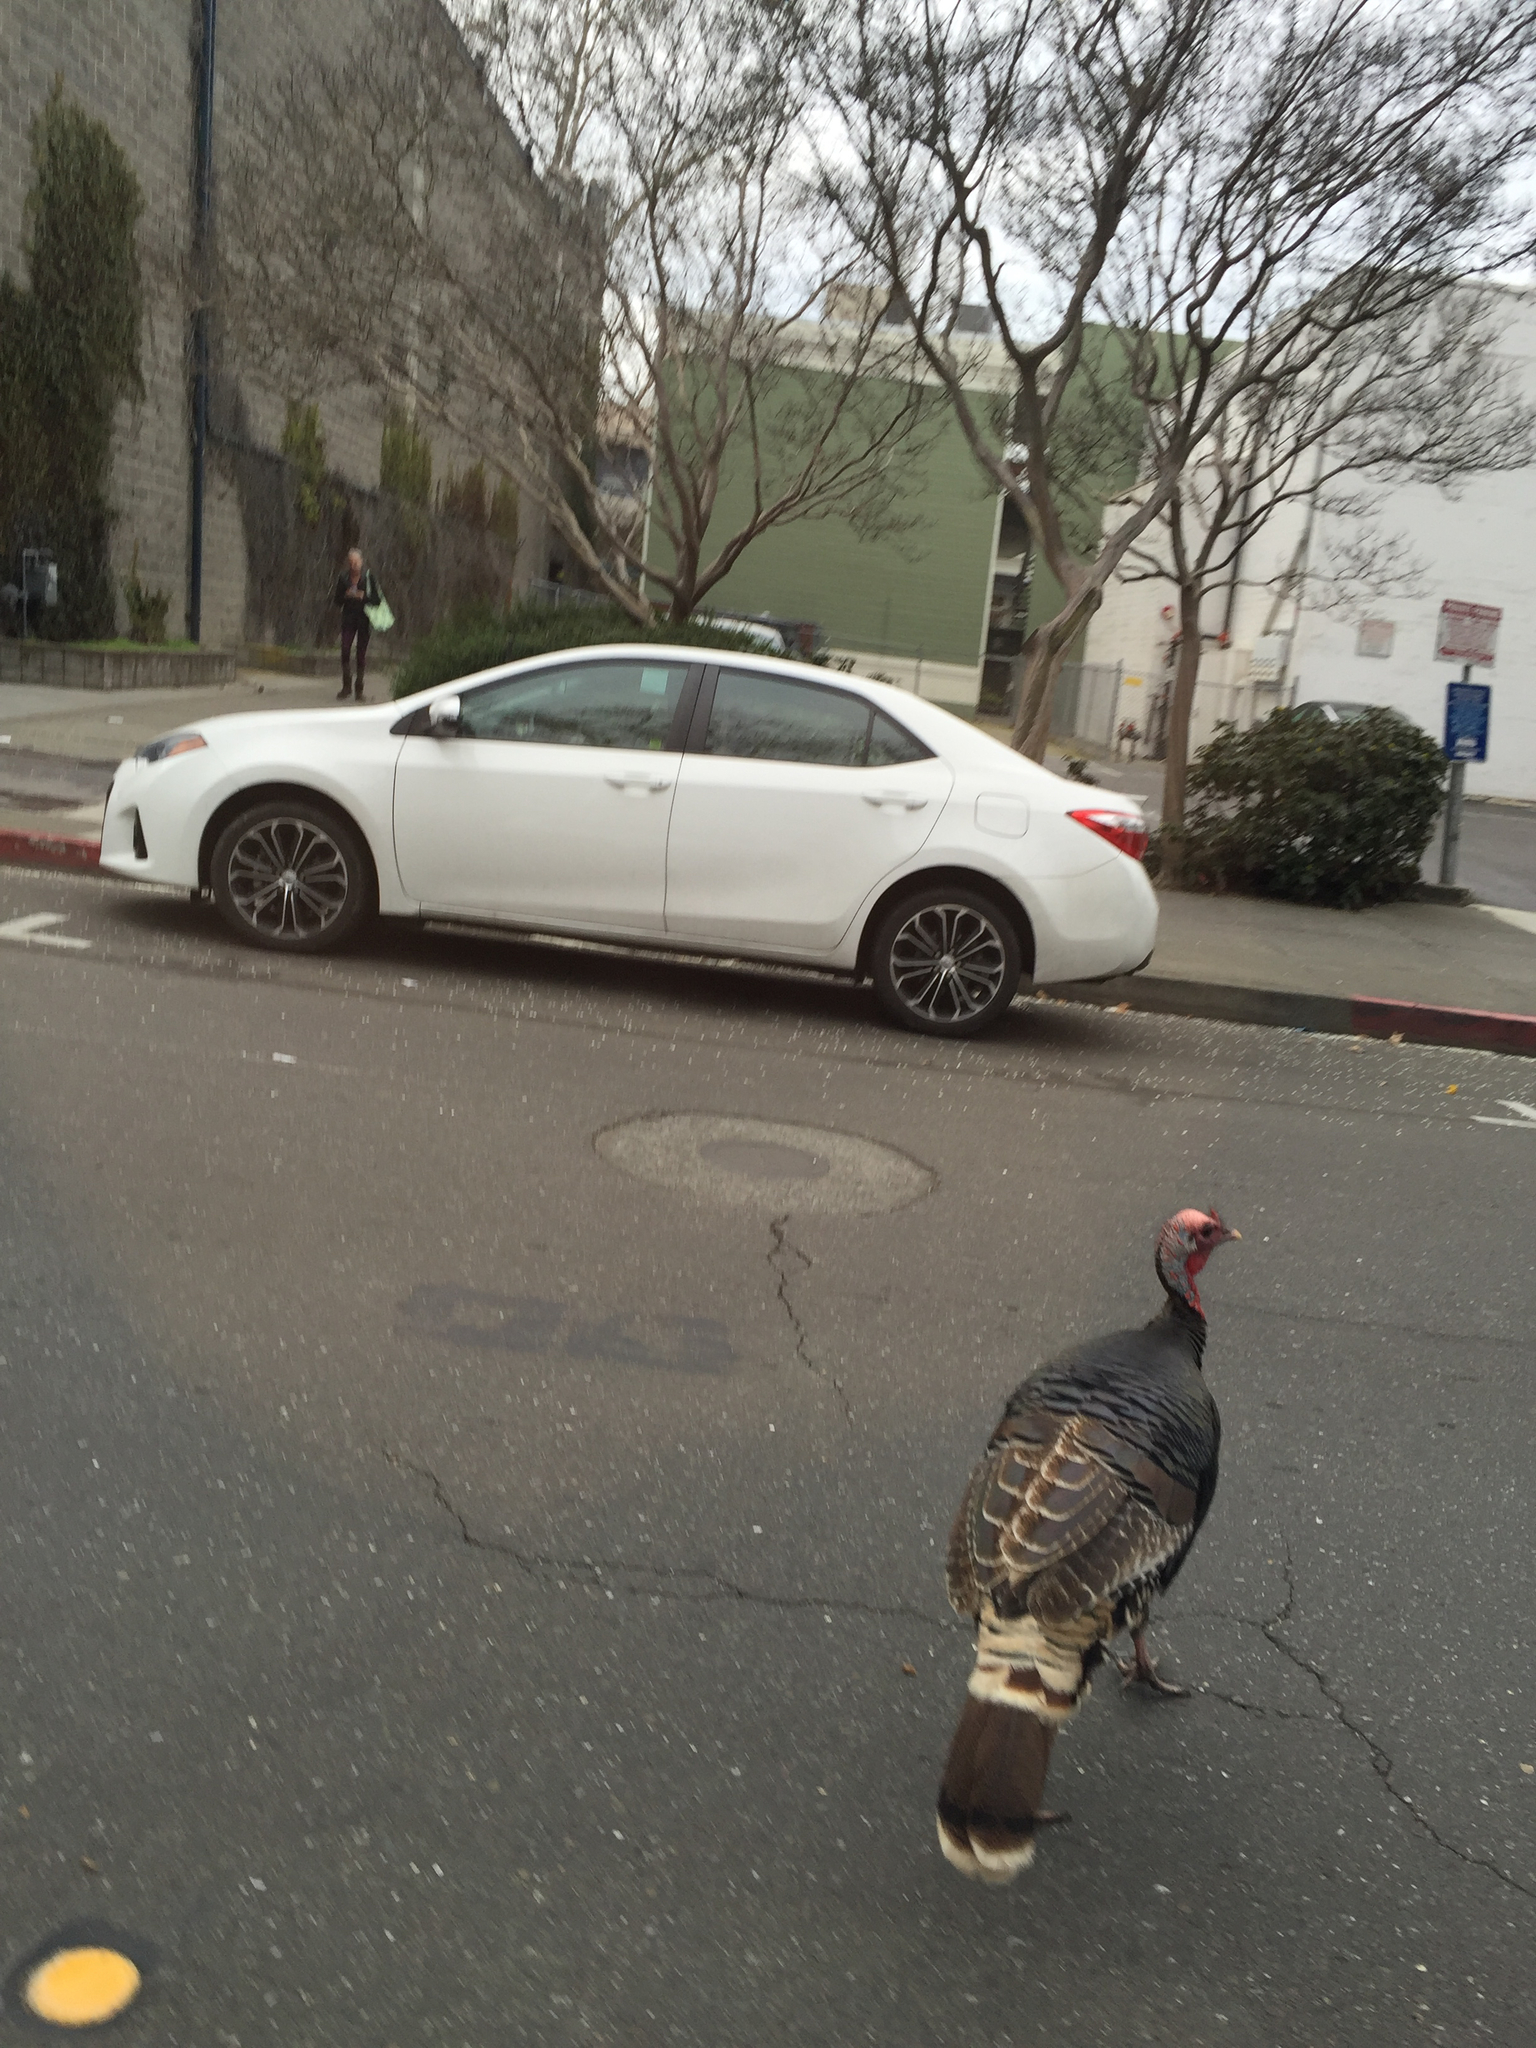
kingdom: Animalia
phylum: Chordata
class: Aves
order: Galliformes
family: Phasianidae
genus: Meleagris
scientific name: Meleagris gallopavo
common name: Wild turkey
